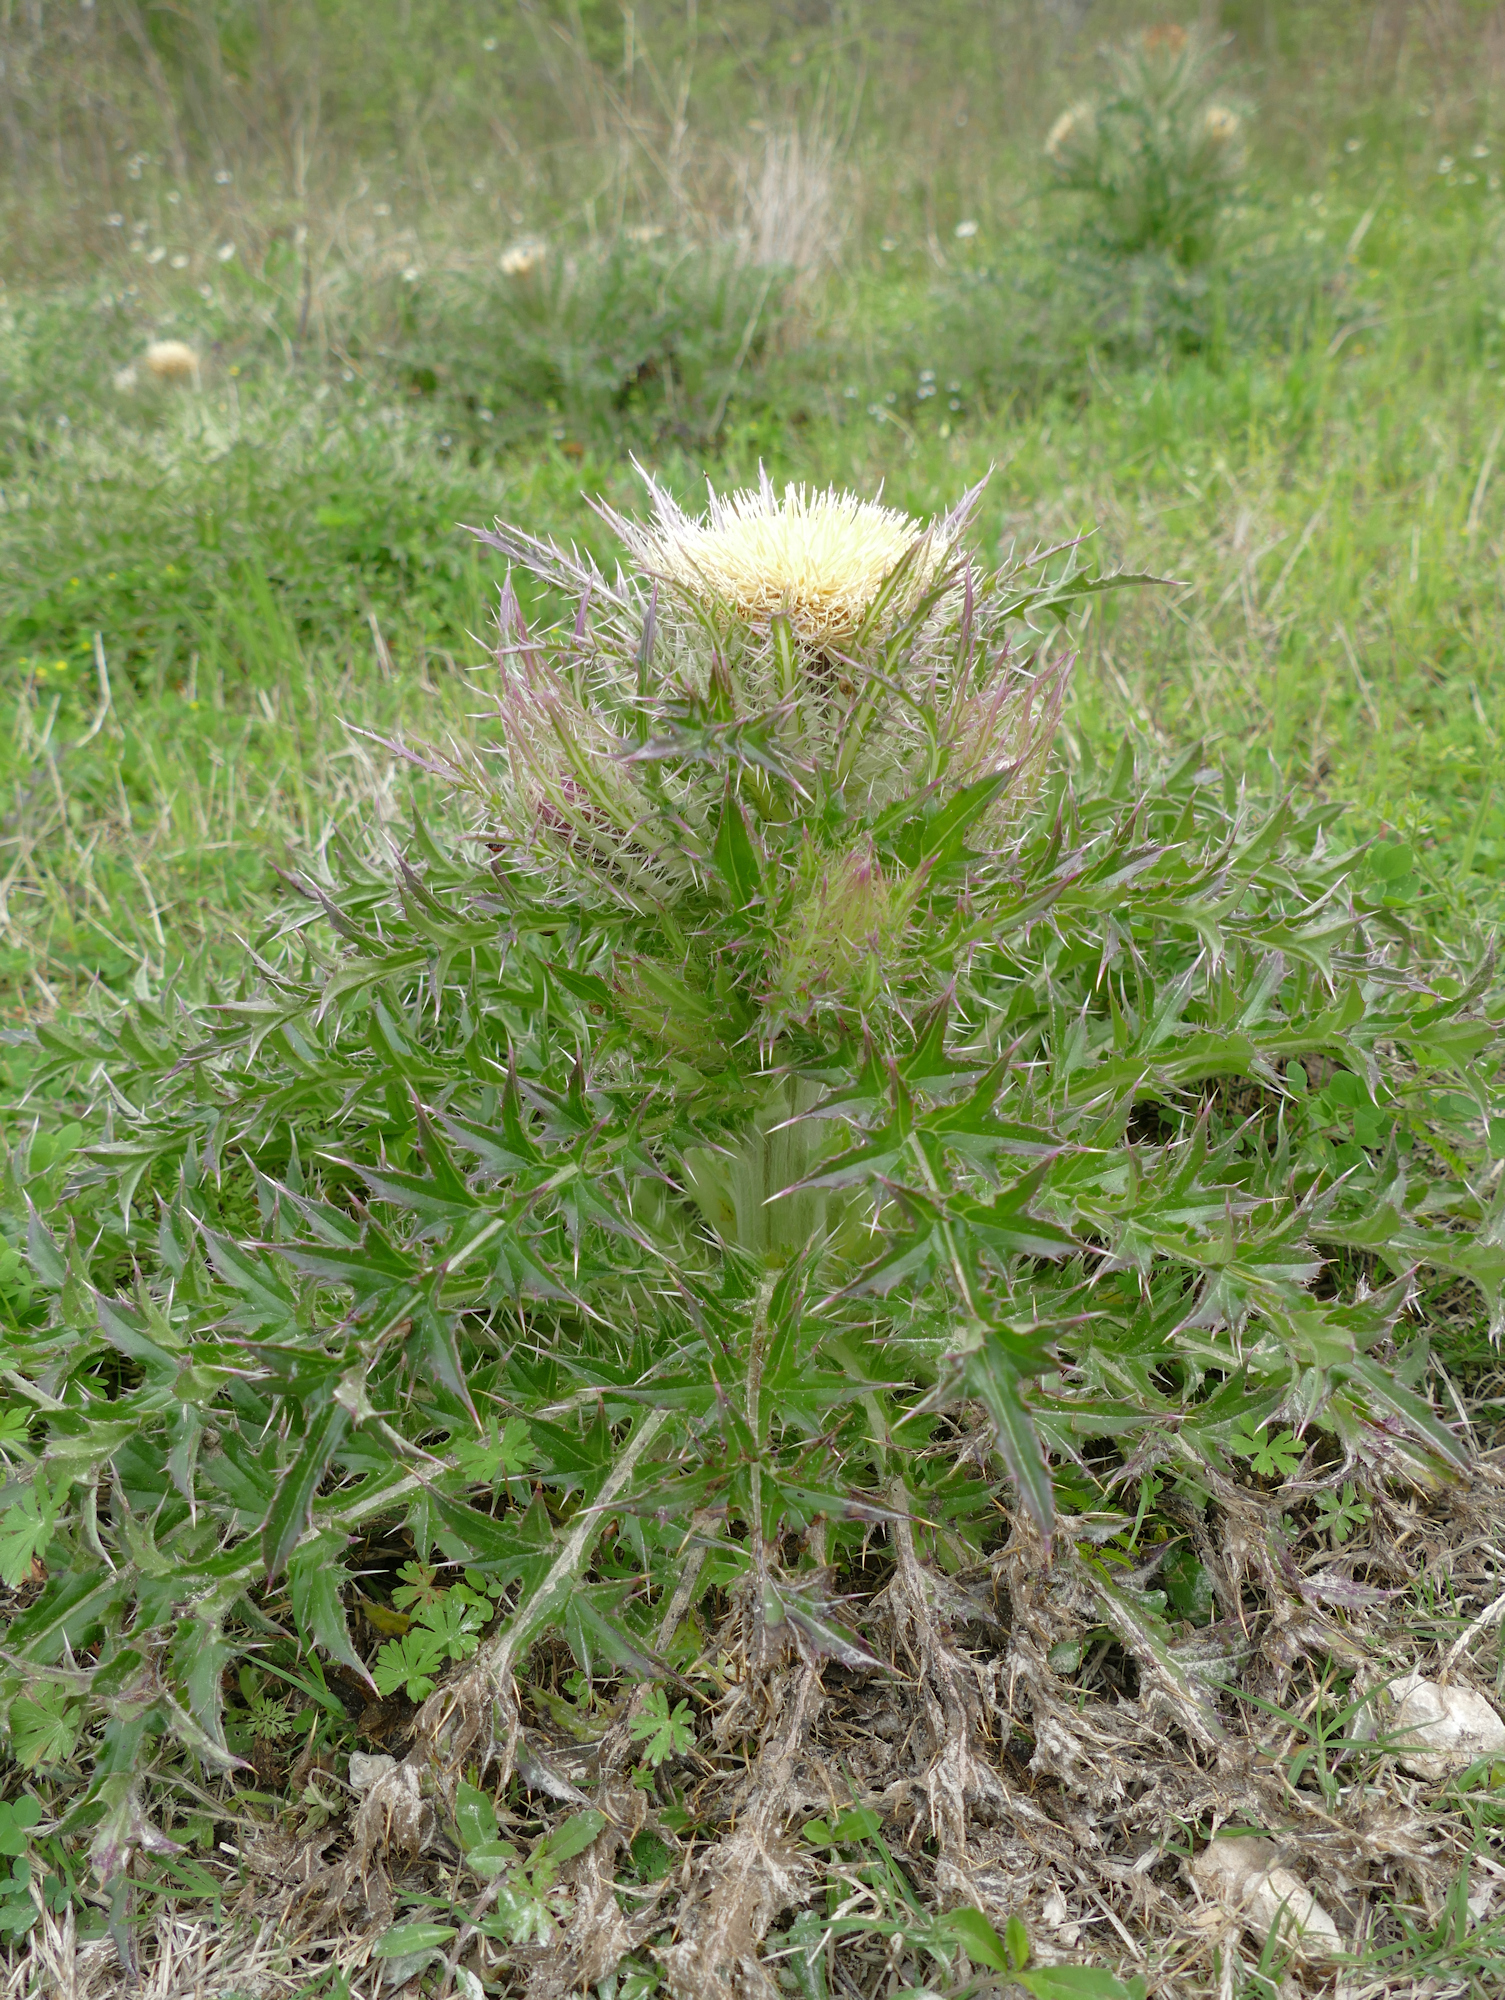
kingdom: Plantae
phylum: Tracheophyta
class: Magnoliopsida
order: Asterales
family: Asteraceae
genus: Cirsium
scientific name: Cirsium horridulum
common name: Bristly thistle
